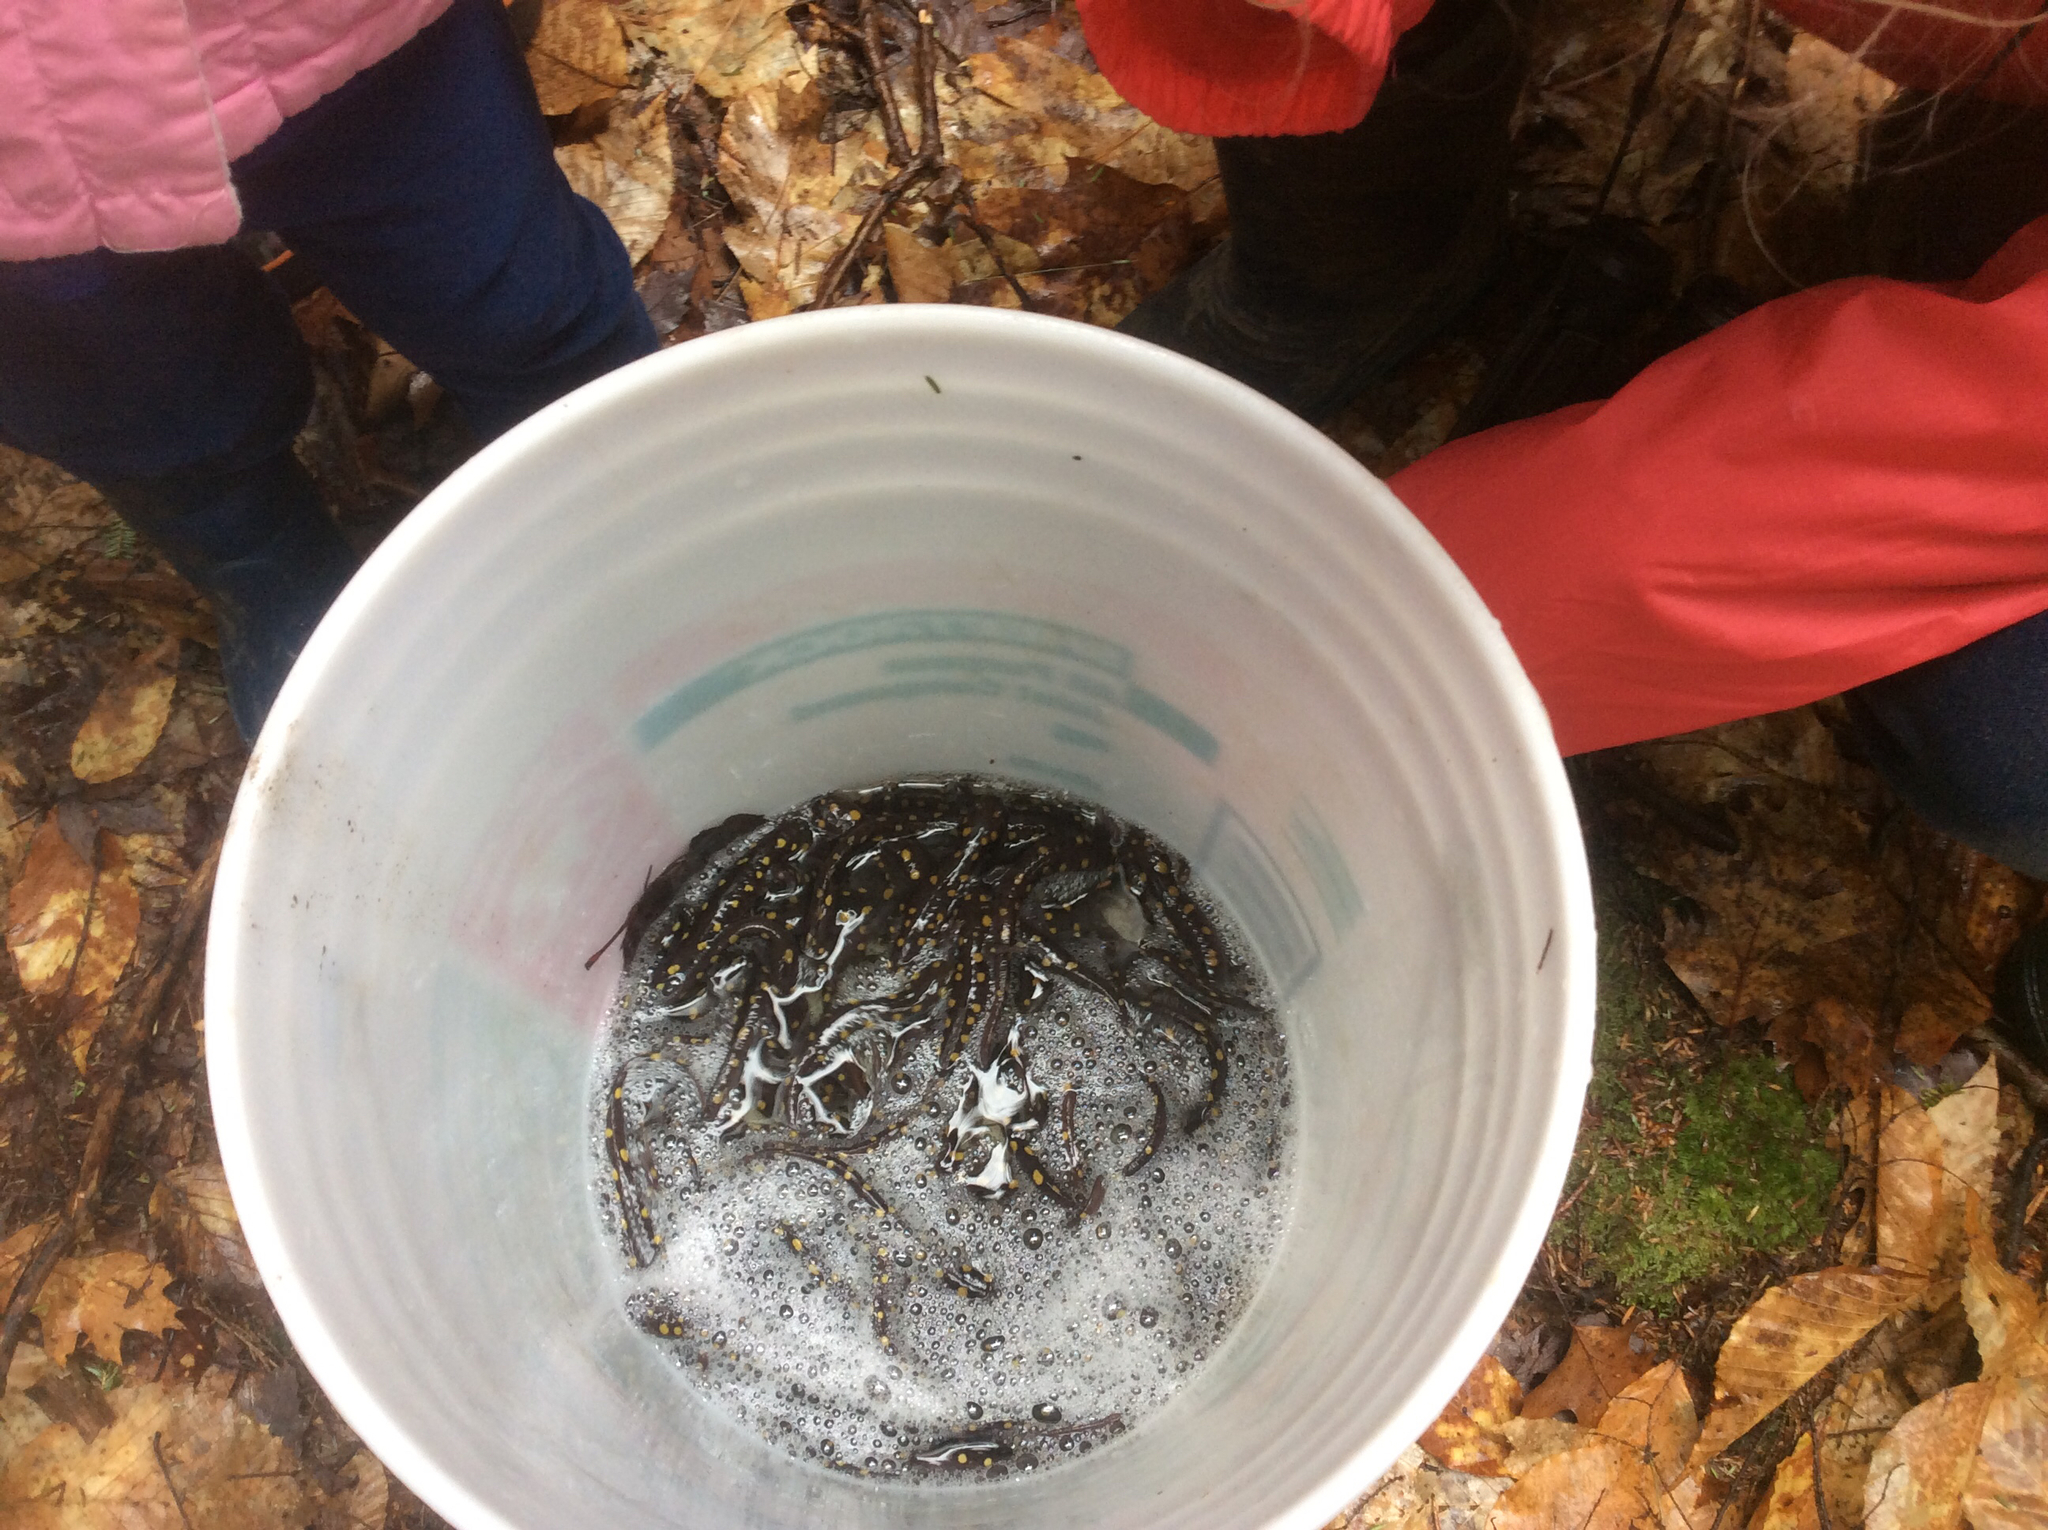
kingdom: Animalia
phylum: Chordata
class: Amphibia
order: Caudata
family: Ambystomatidae
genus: Ambystoma
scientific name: Ambystoma maculatum
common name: Spotted salamander
